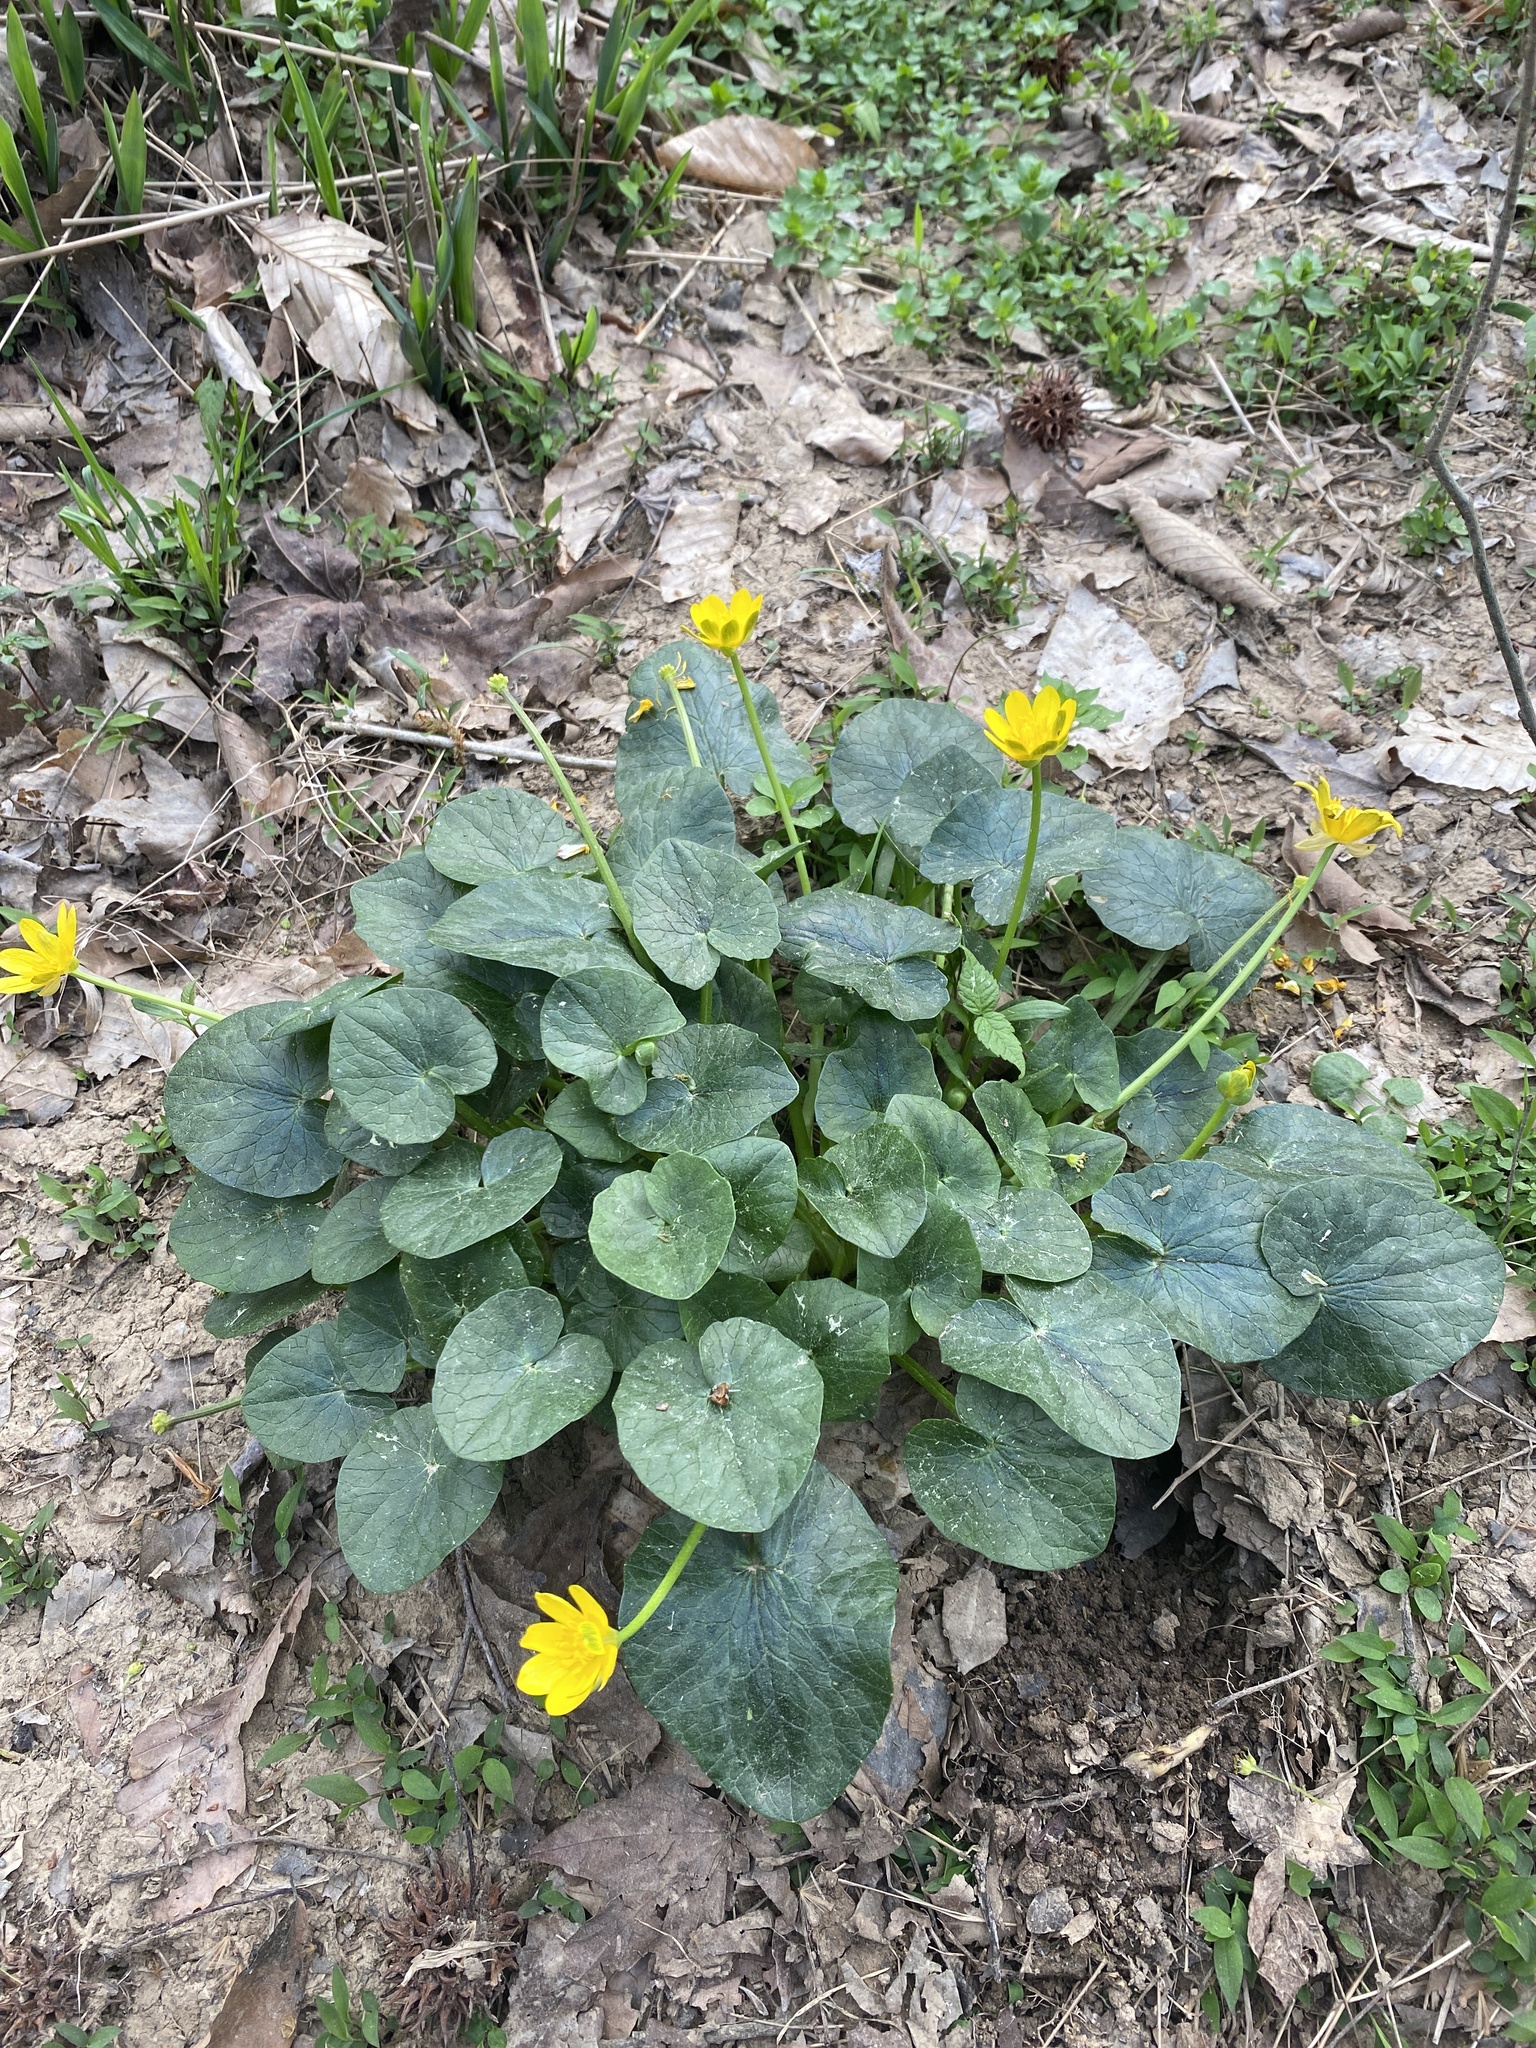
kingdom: Plantae
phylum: Tracheophyta
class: Magnoliopsida
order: Ranunculales
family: Ranunculaceae
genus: Ficaria
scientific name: Ficaria verna
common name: Lesser celandine
